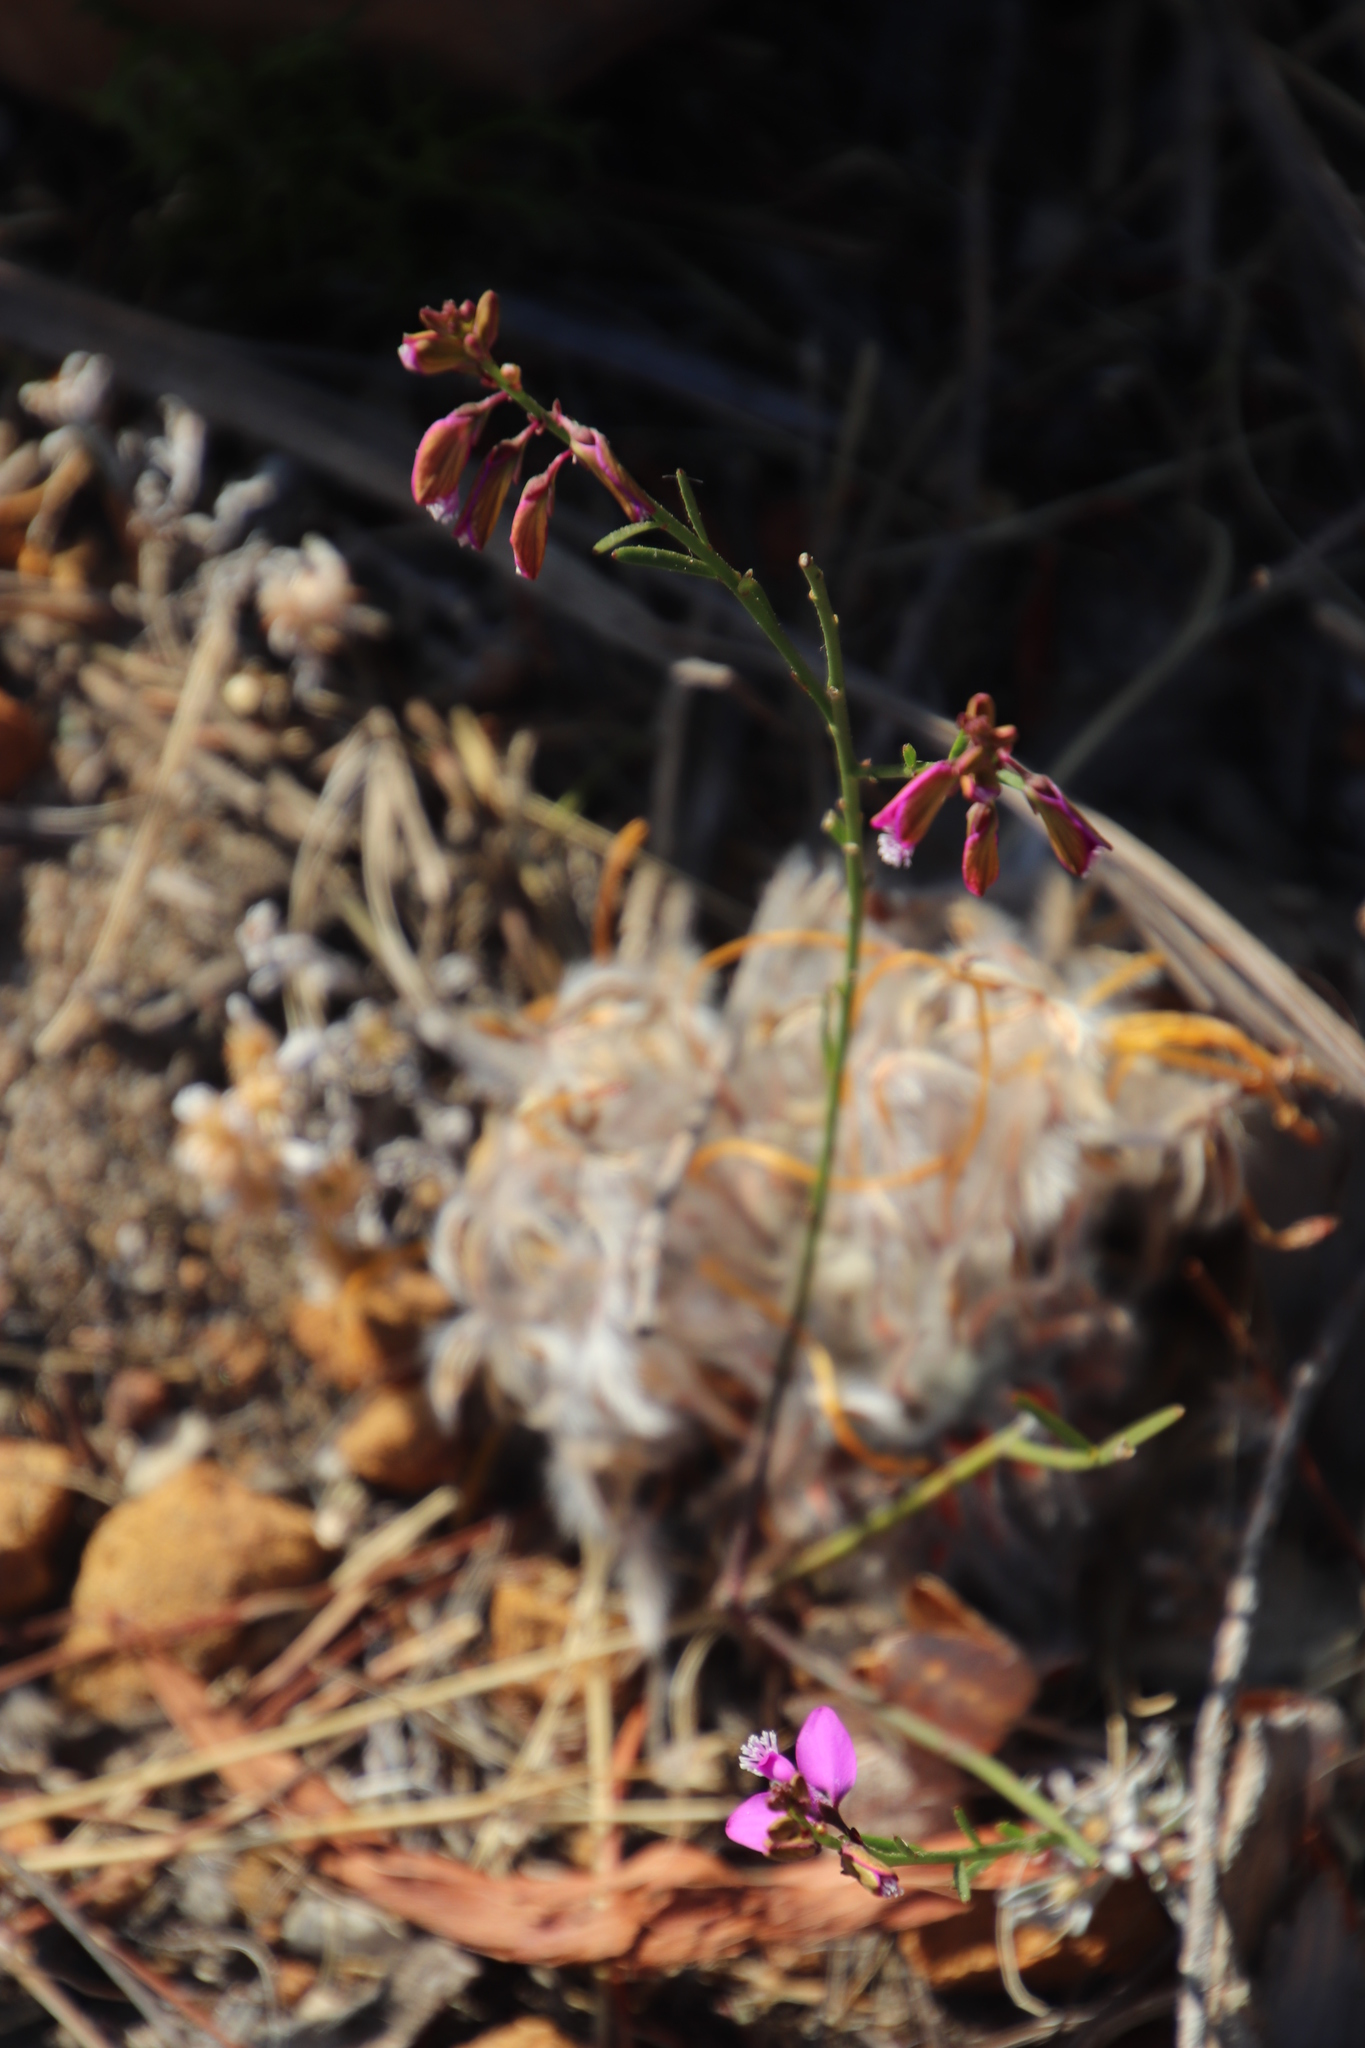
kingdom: Plantae
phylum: Tracheophyta
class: Magnoliopsida
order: Fabales
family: Polygalaceae
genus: Polygala
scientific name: Polygala garcini
